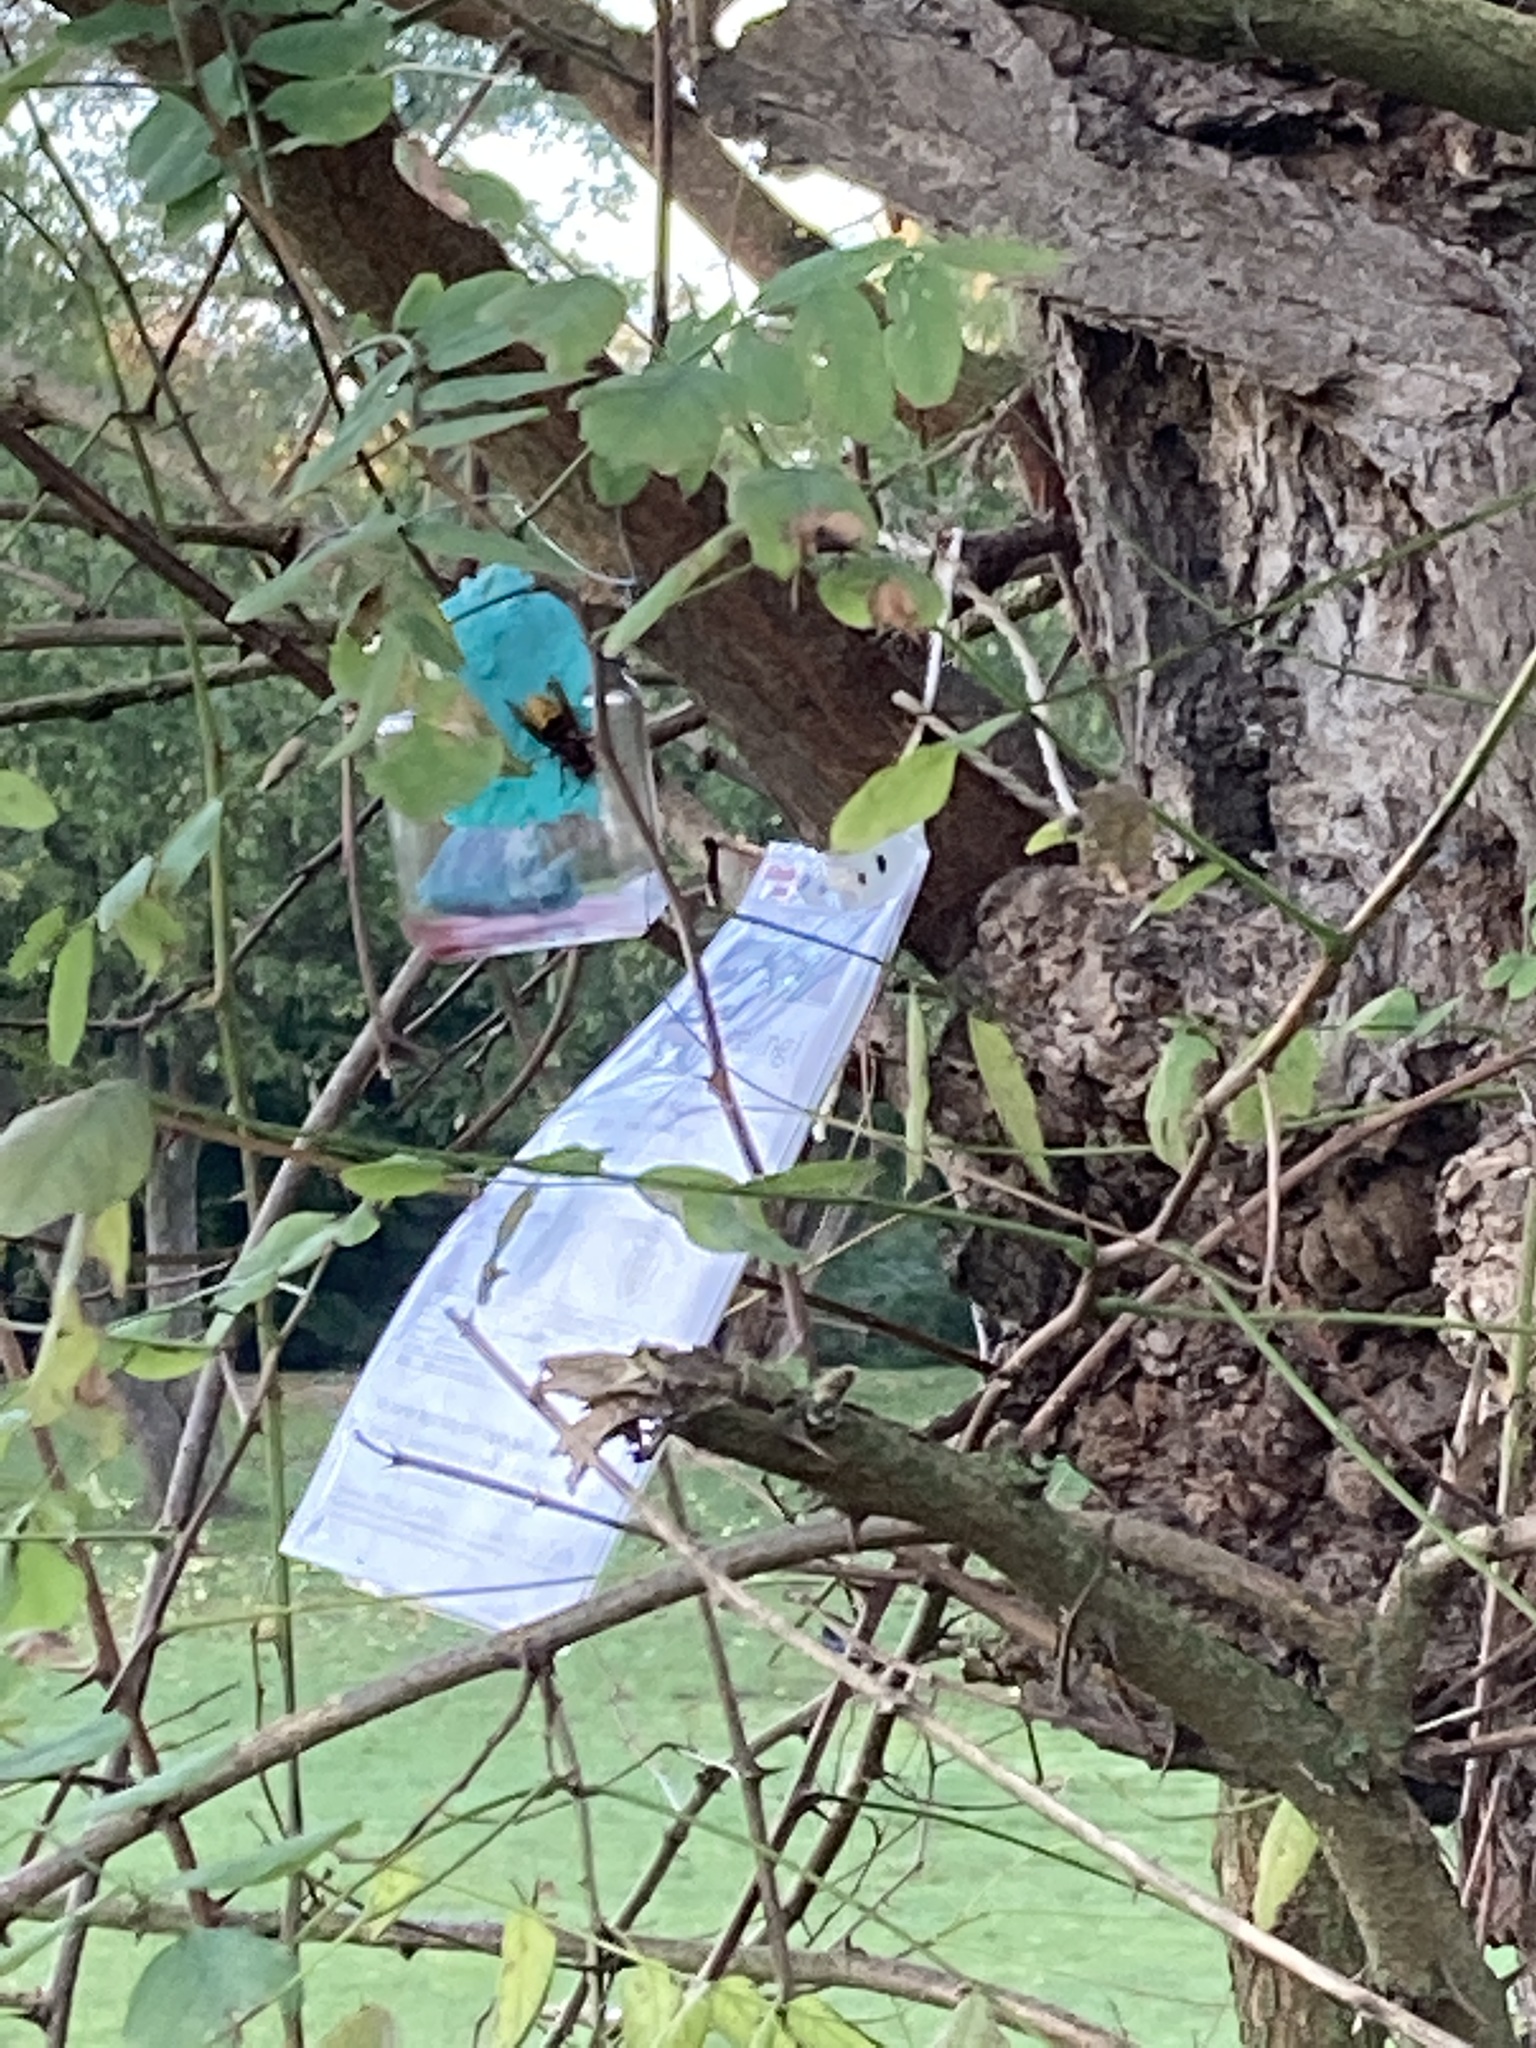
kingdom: Animalia
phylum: Arthropoda
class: Insecta
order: Hymenoptera
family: Vespidae
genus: Vespa
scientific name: Vespa crabro
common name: Hornet
